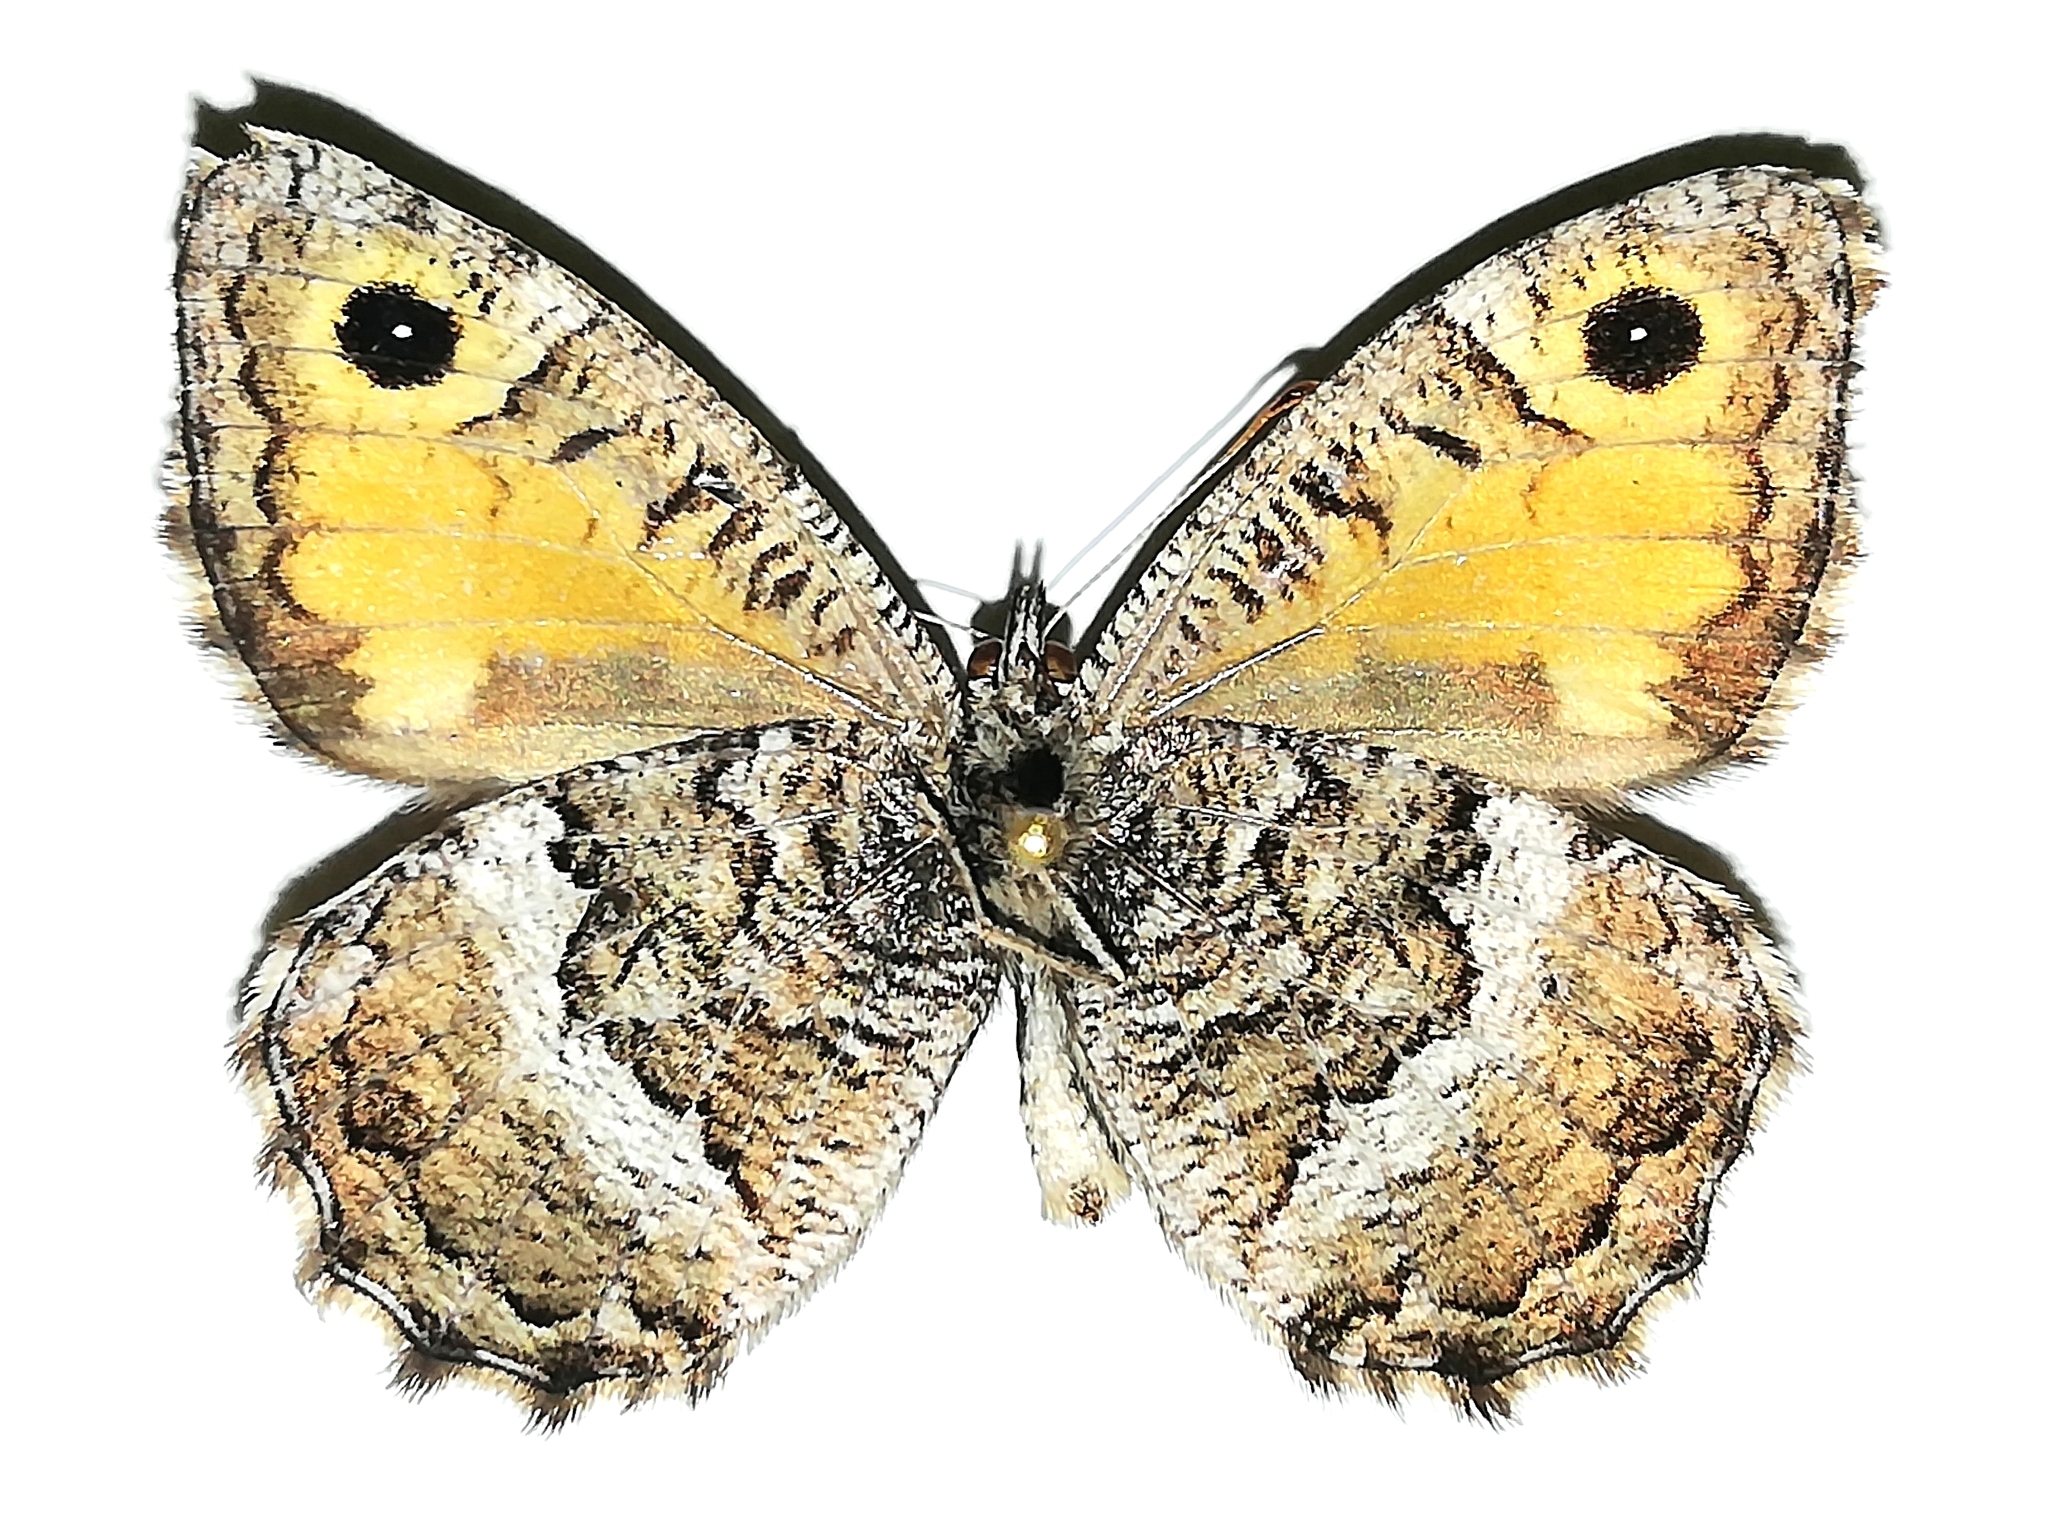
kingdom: Animalia
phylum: Arthropoda
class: Insecta
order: Lepidoptera
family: Nymphalidae
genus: Arethusana
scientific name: Arethusana arethusa
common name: False grayling
